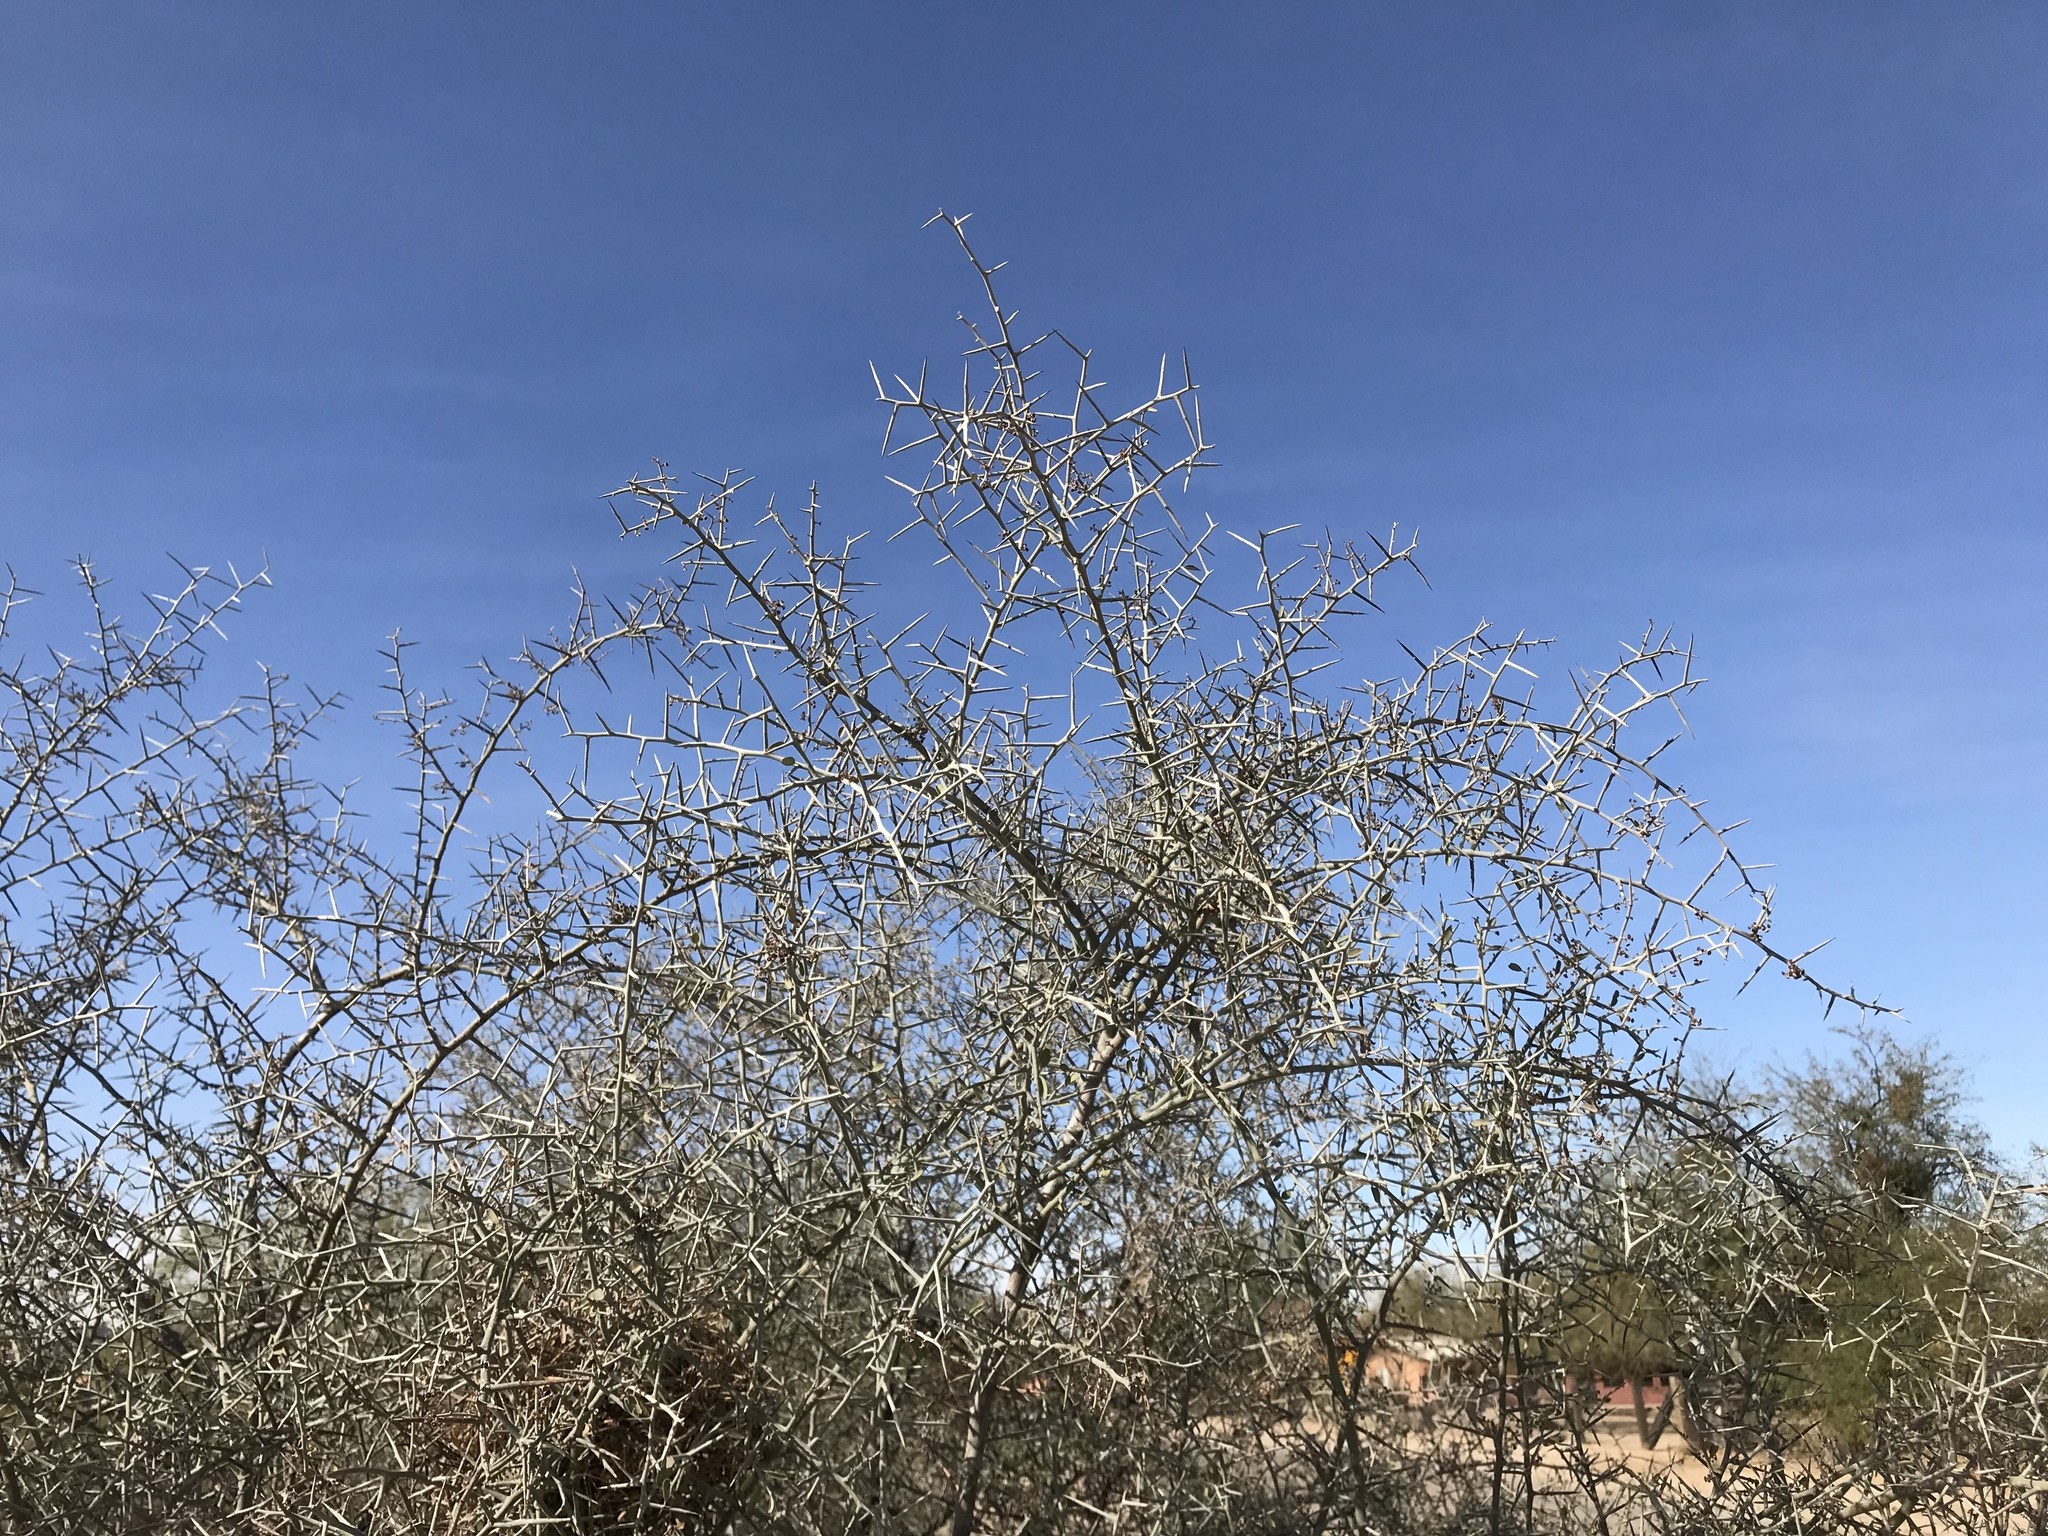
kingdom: Plantae
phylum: Tracheophyta
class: Magnoliopsida
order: Rosales
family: Rhamnaceae
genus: Sarcomphalus
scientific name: Sarcomphalus obtusifolius
